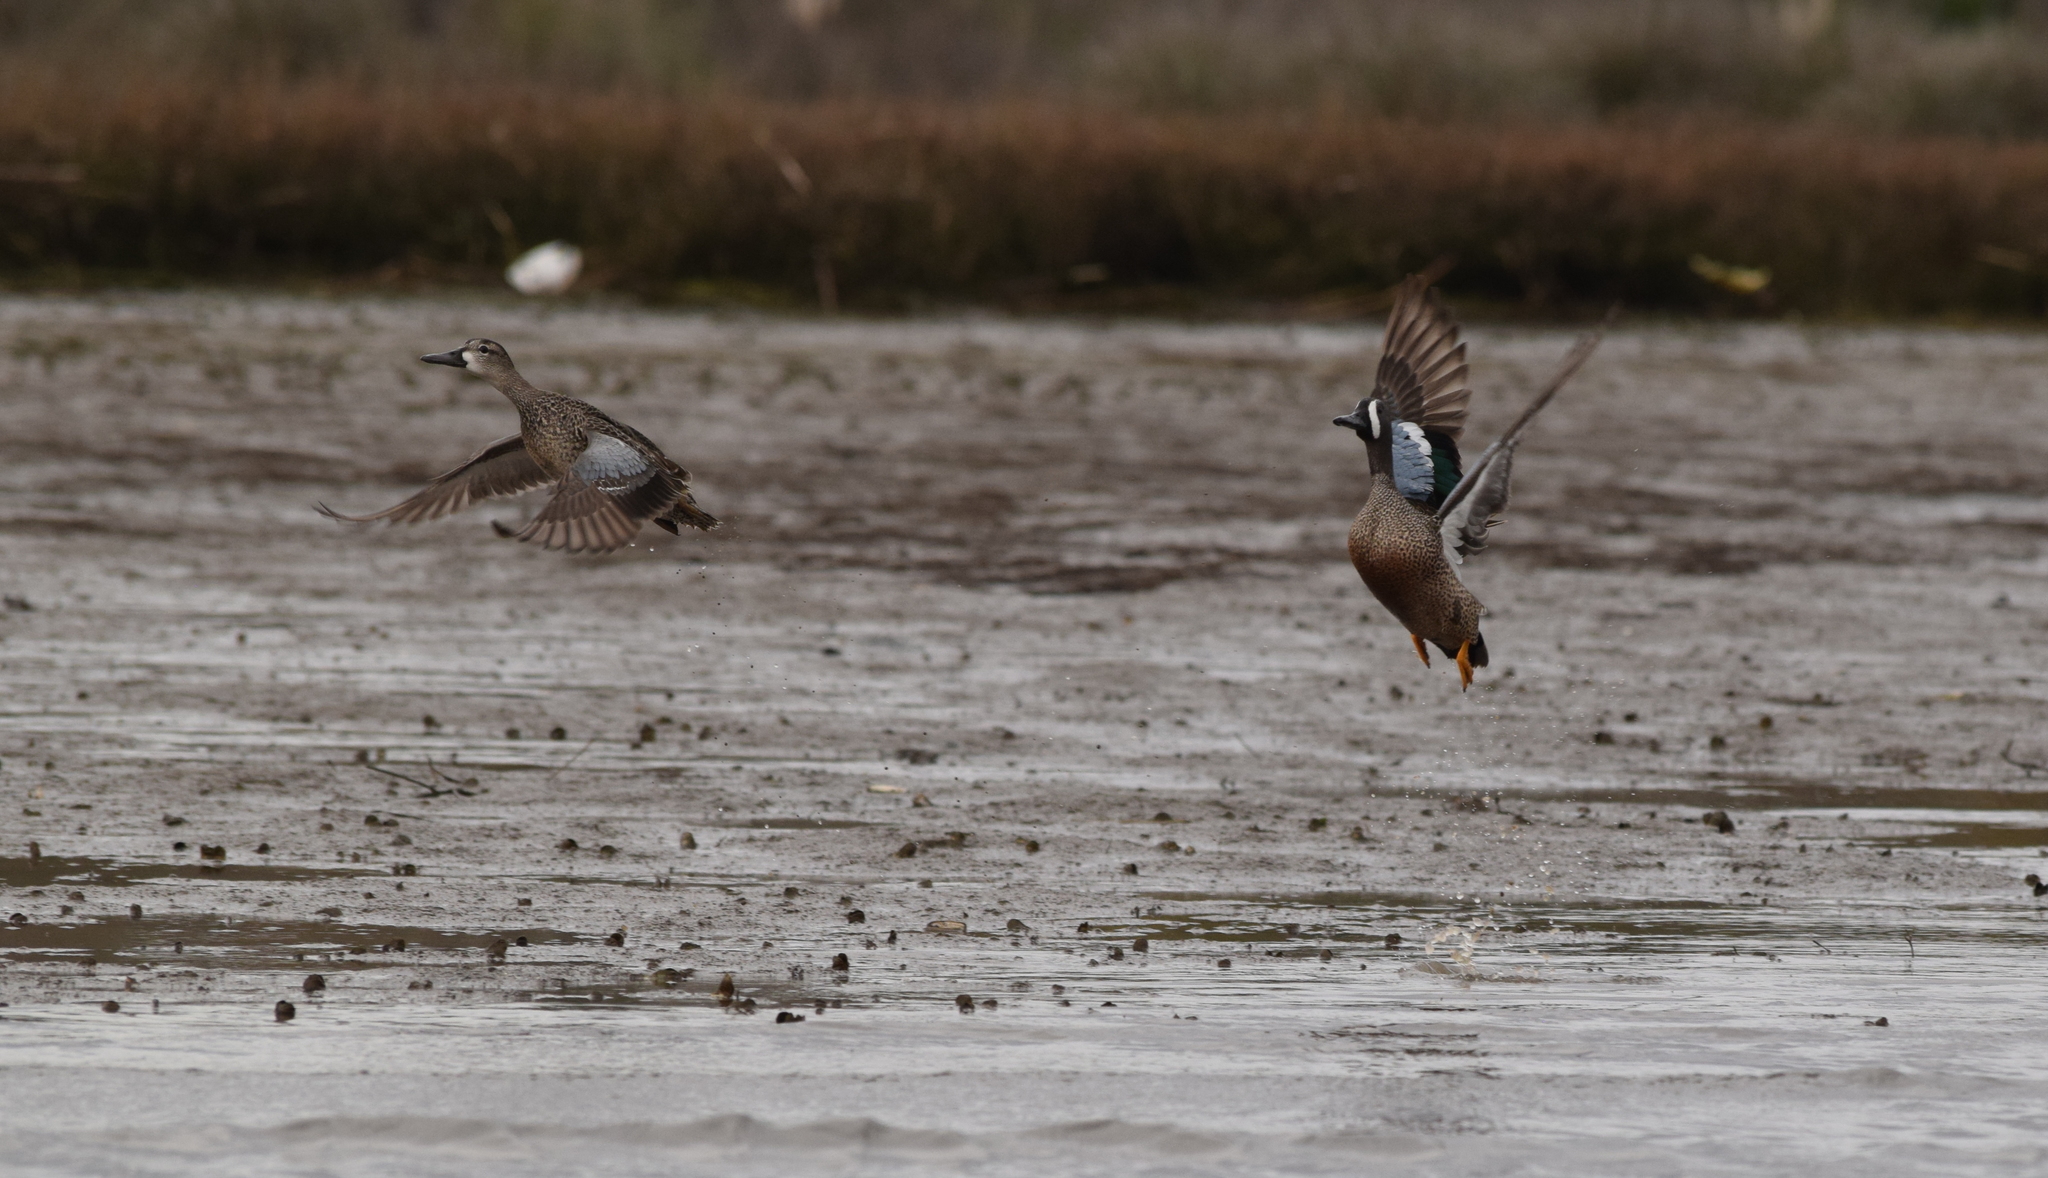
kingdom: Animalia
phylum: Chordata
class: Aves
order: Anseriformes
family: Anatidae
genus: Spatula
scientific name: Spatula discors
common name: Blue-winged teal
